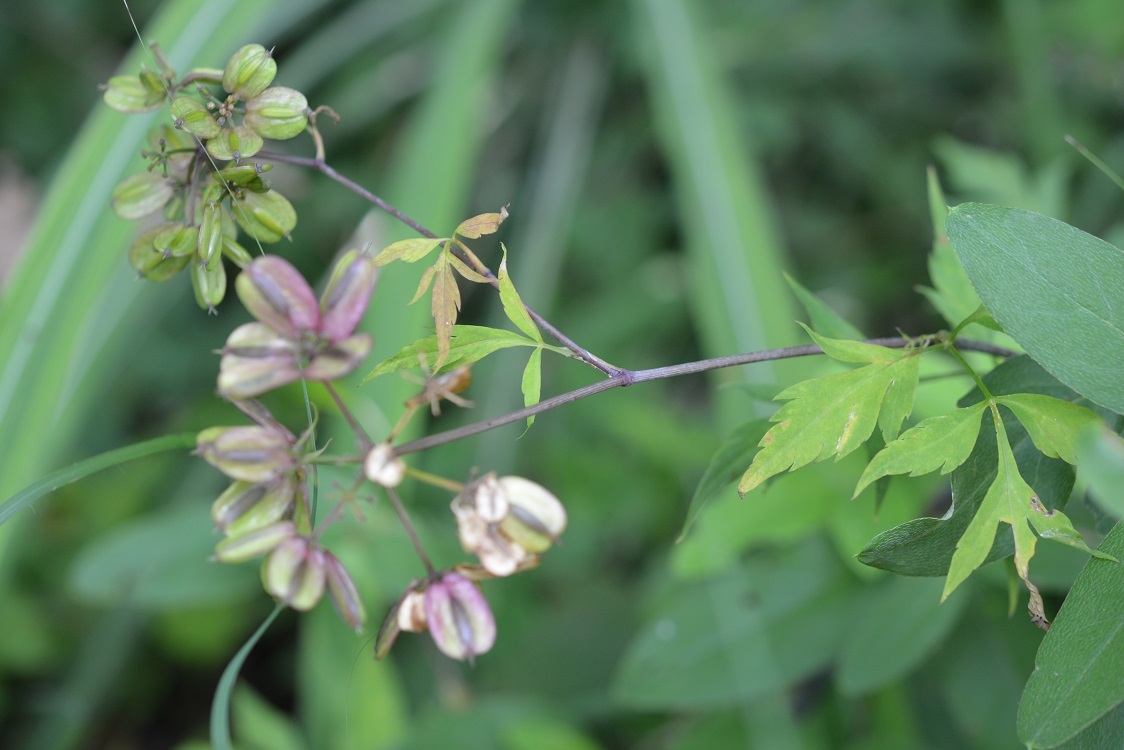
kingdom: Plantae
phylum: Tracheophyta
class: Magnoliopsida
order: Apiales
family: Apiaceae
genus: Rhodosciadium
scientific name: Rhodosciadium diffusum
